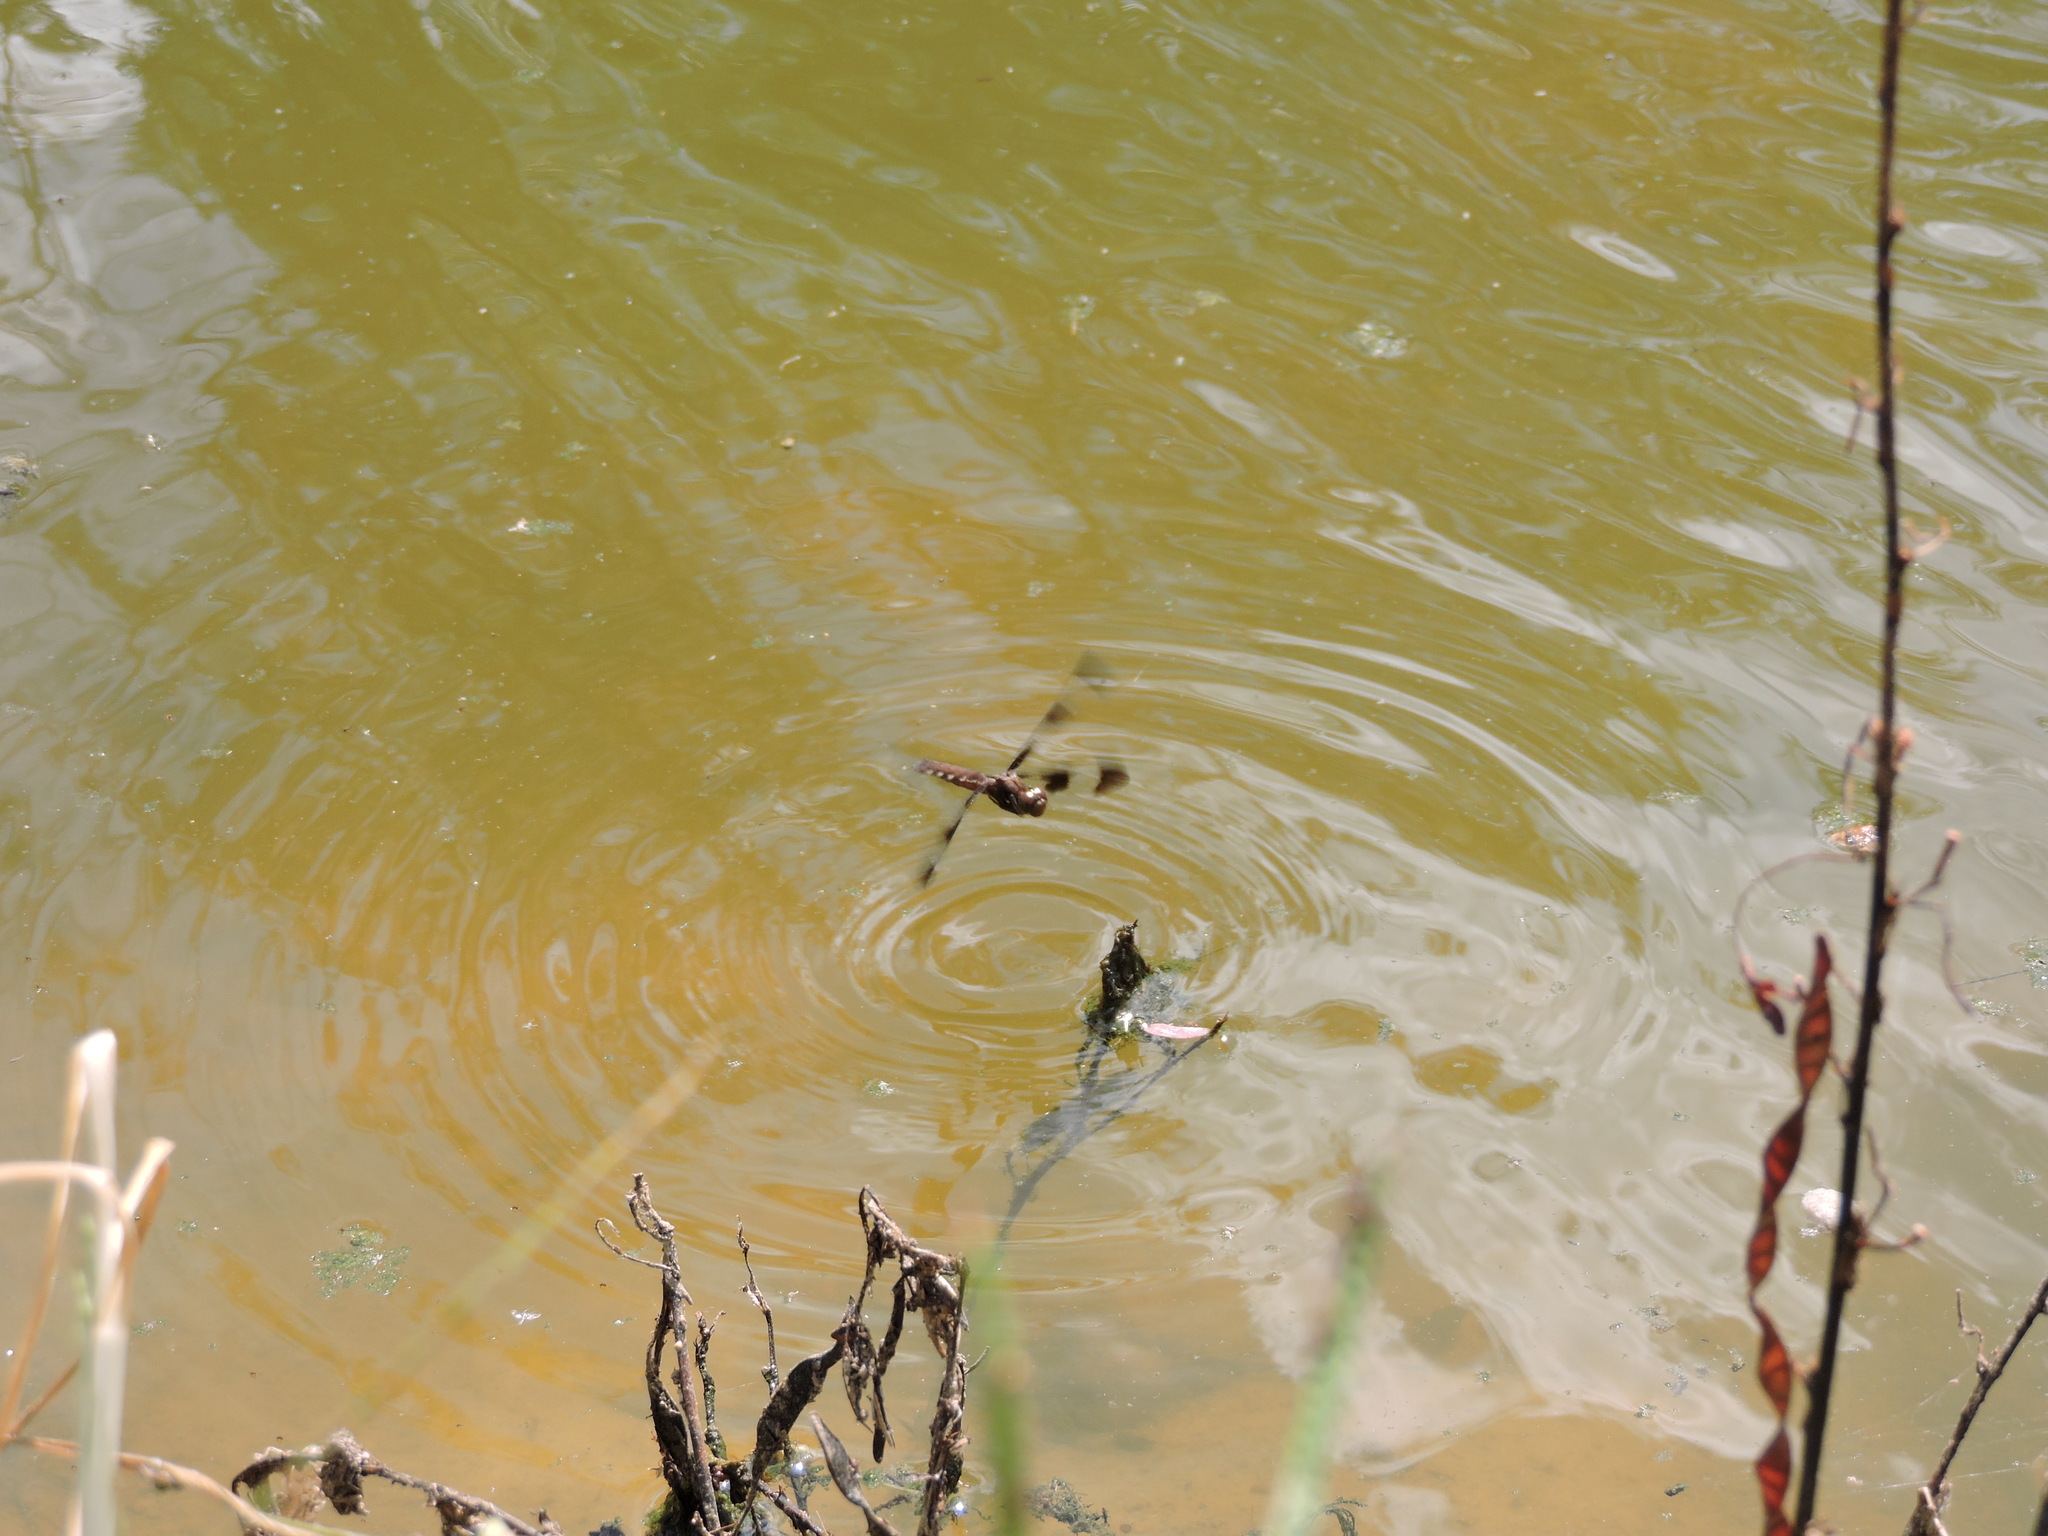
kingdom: Animalia
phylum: Arthropoda
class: Insecta
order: Odonata
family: Libellulidae
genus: Plathemis
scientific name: Plathemis lydia
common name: Common whitetail
